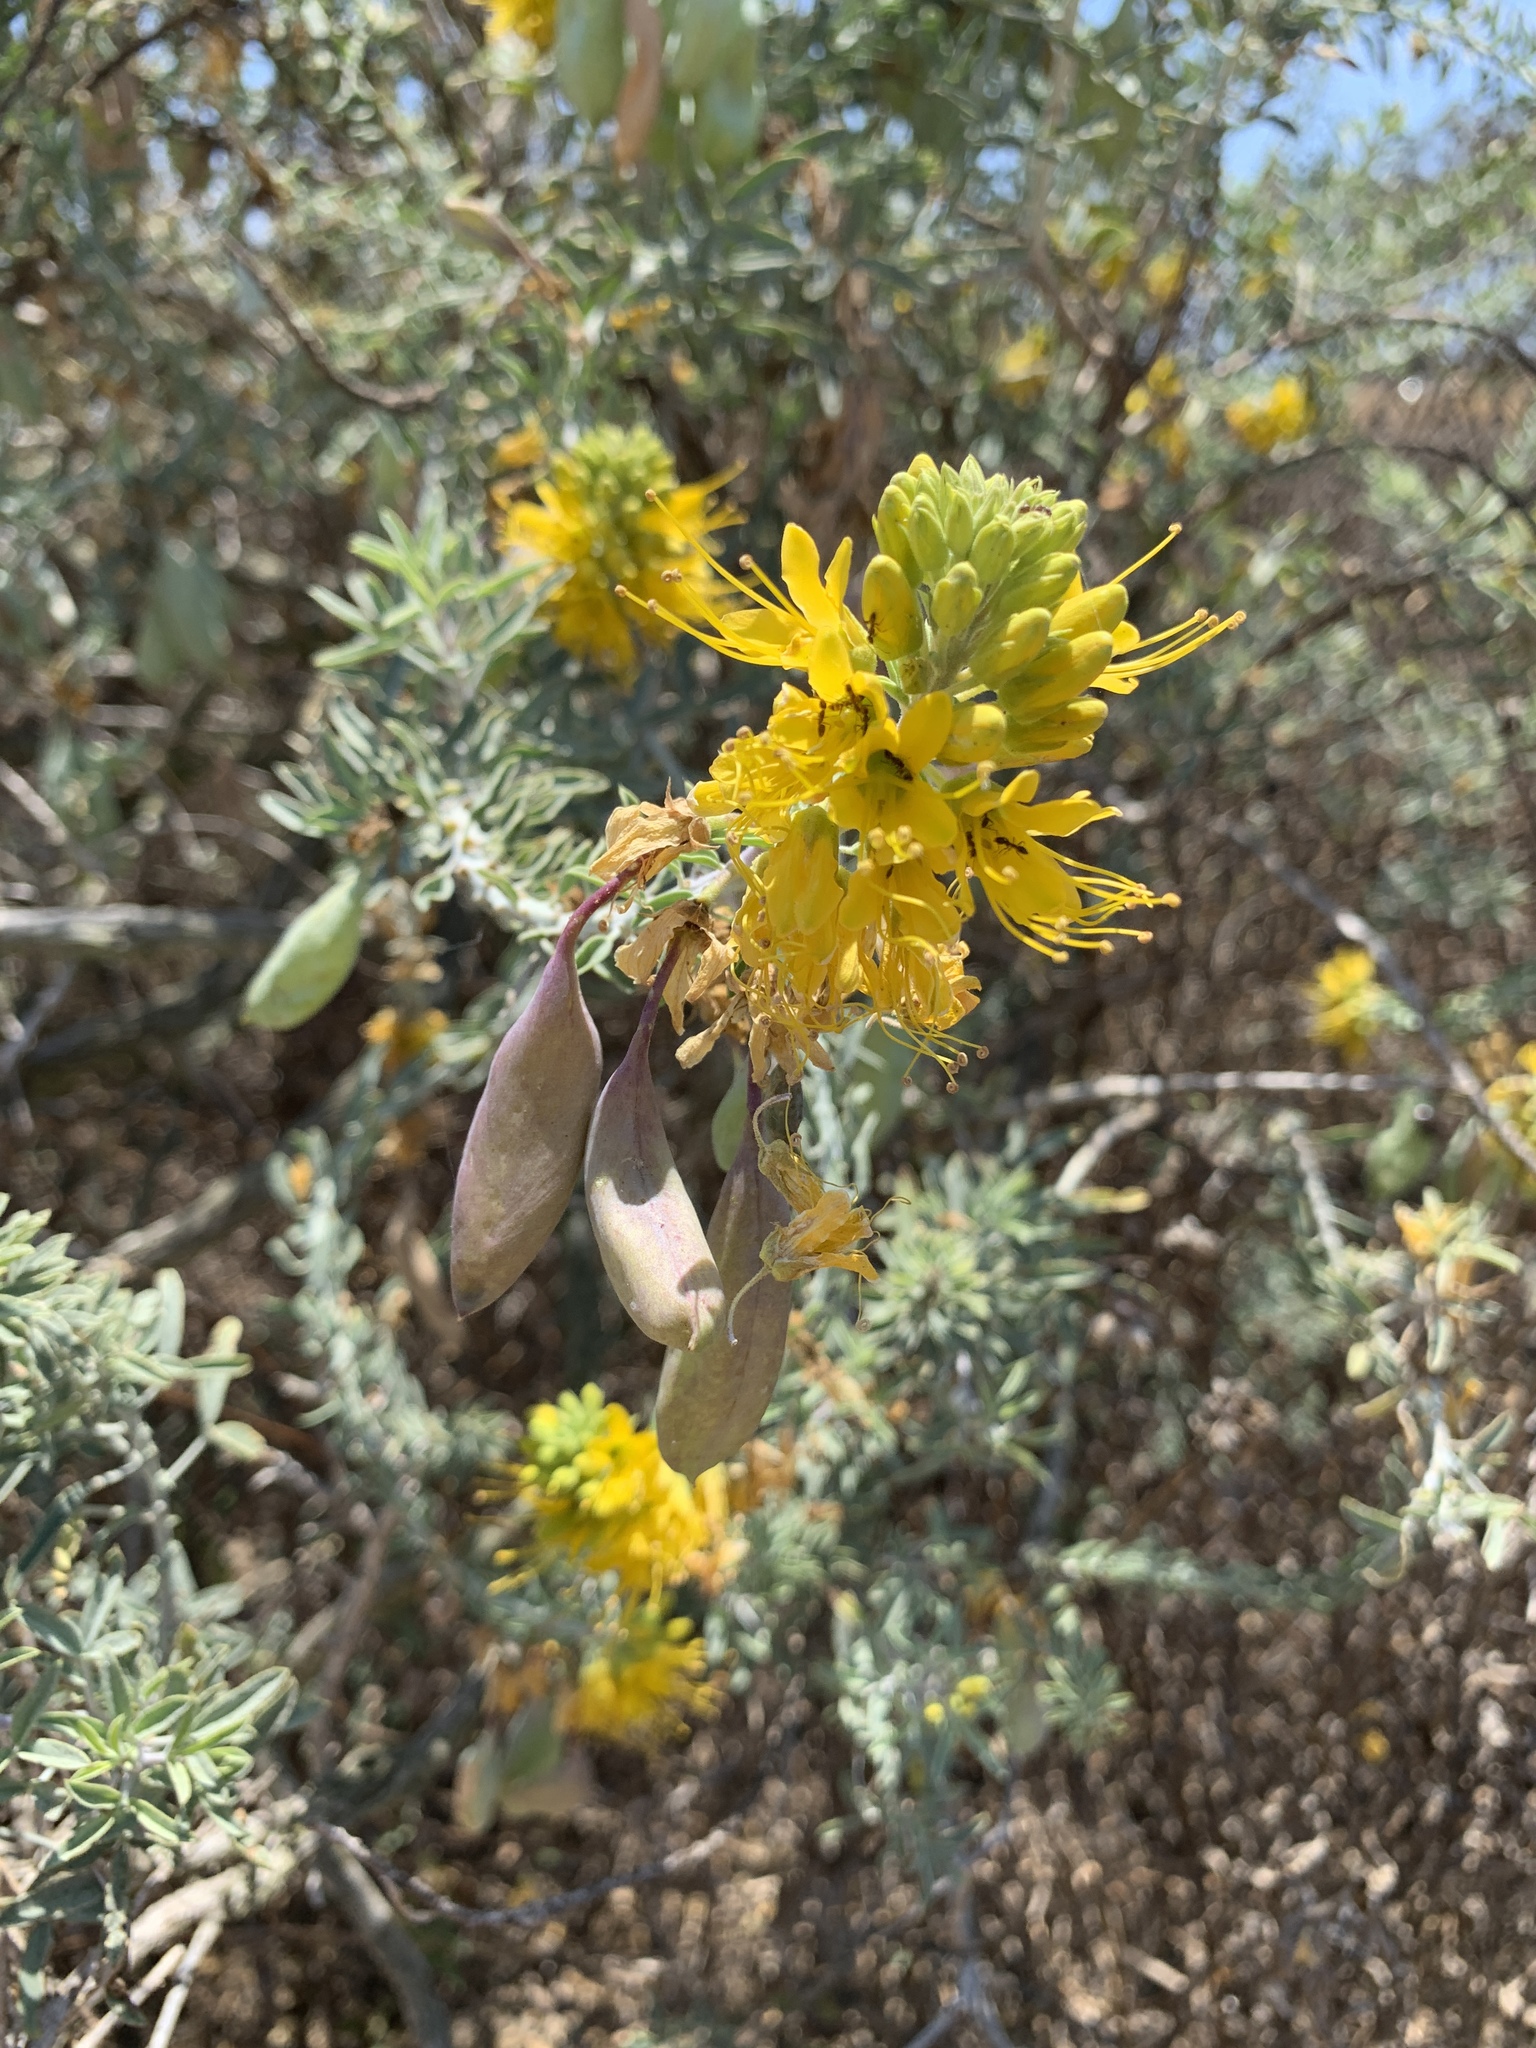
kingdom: Plantae
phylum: Tracheophyta
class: Magnoliopsida
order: Brassicales
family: Cleomaceae
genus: Cleomella
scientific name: Cleomella arborea
